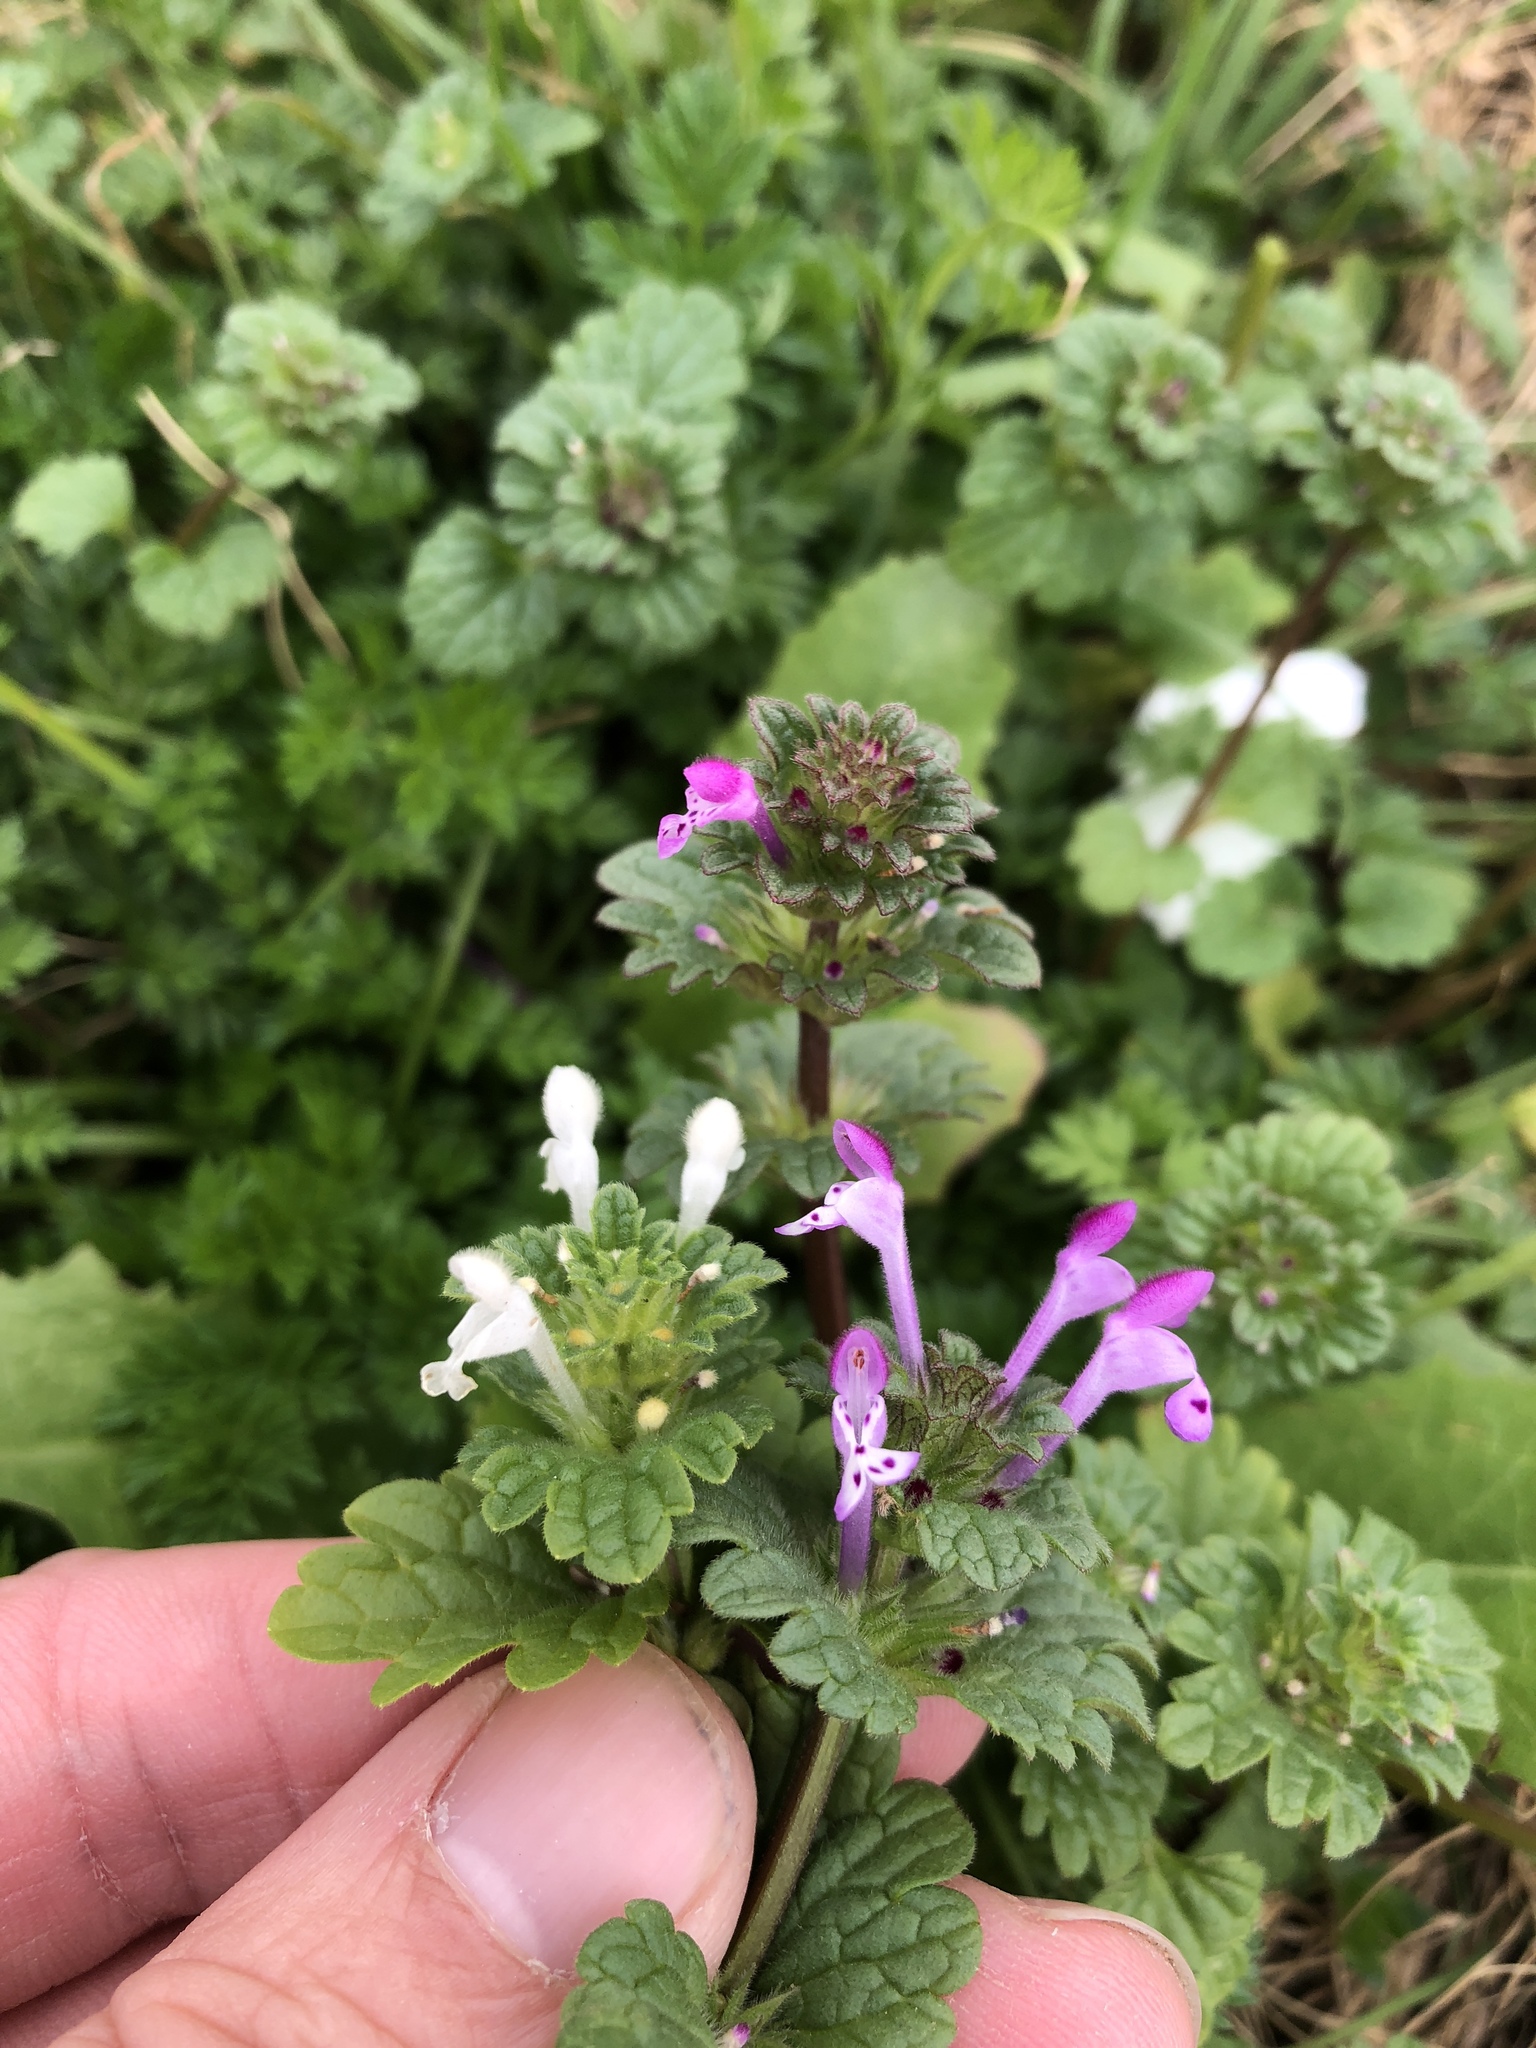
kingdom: Plantae
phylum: Tracheophyta
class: Magnoliopsida
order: Lamiales
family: Lamiaceae
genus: Lamium
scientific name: Lamium amplexicaule
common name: Henbit dead-nettle
